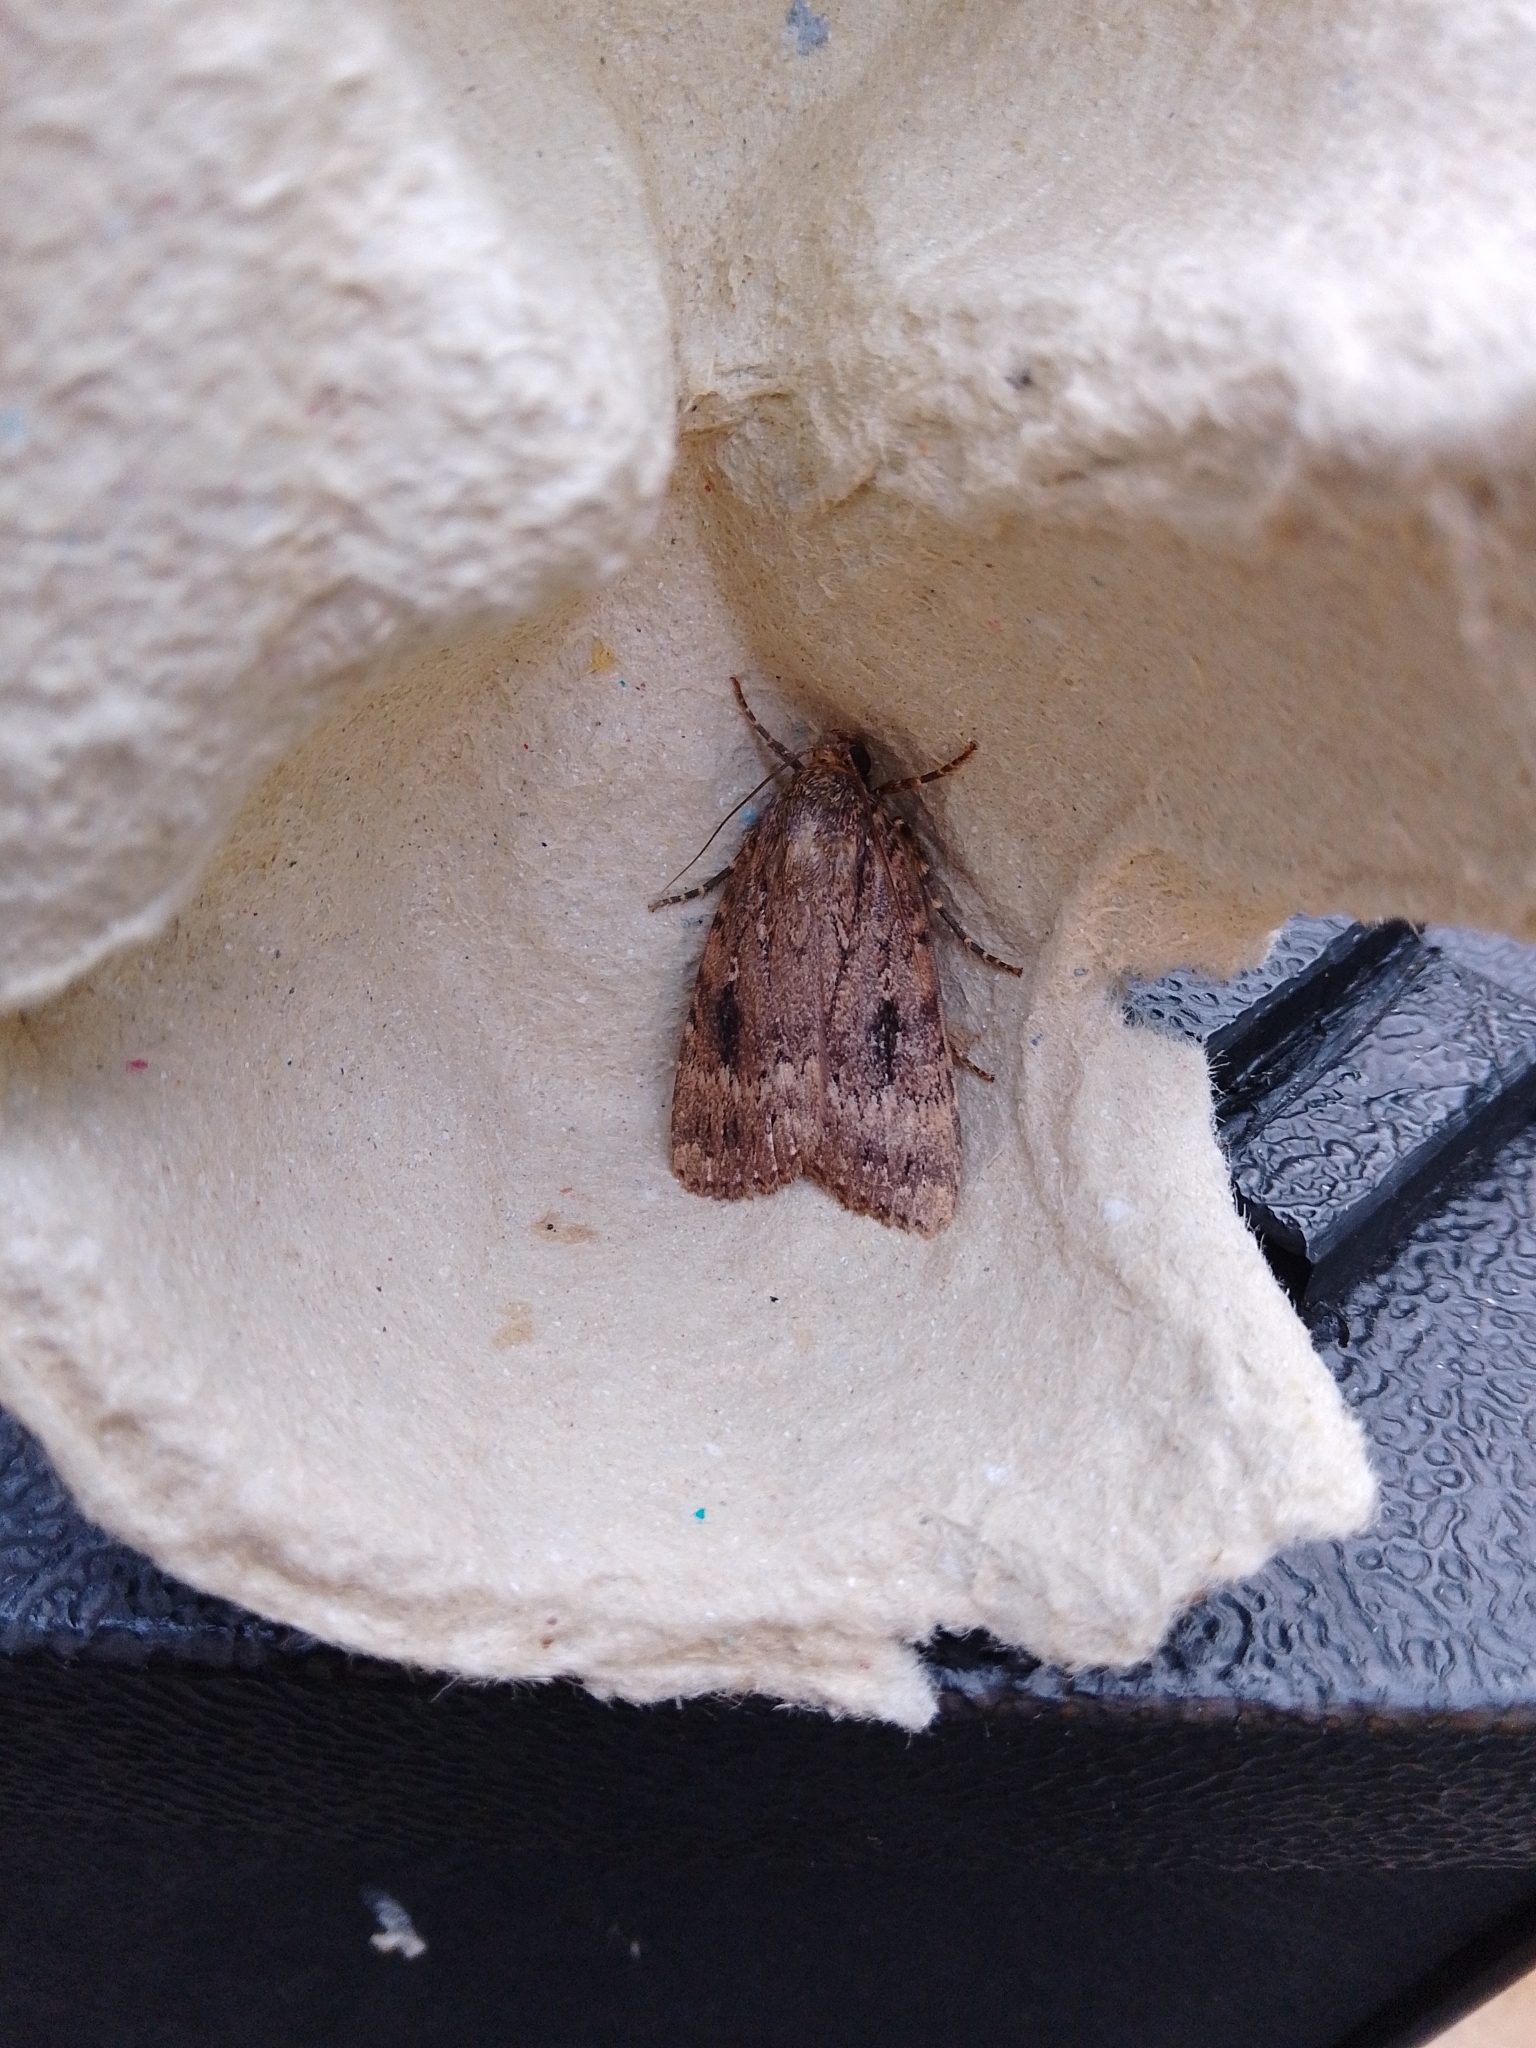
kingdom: Animalia
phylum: Arthropoda
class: Insecta
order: Lepidoptera
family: Noctuidae
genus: Amphipyra
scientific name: Amphipyra
